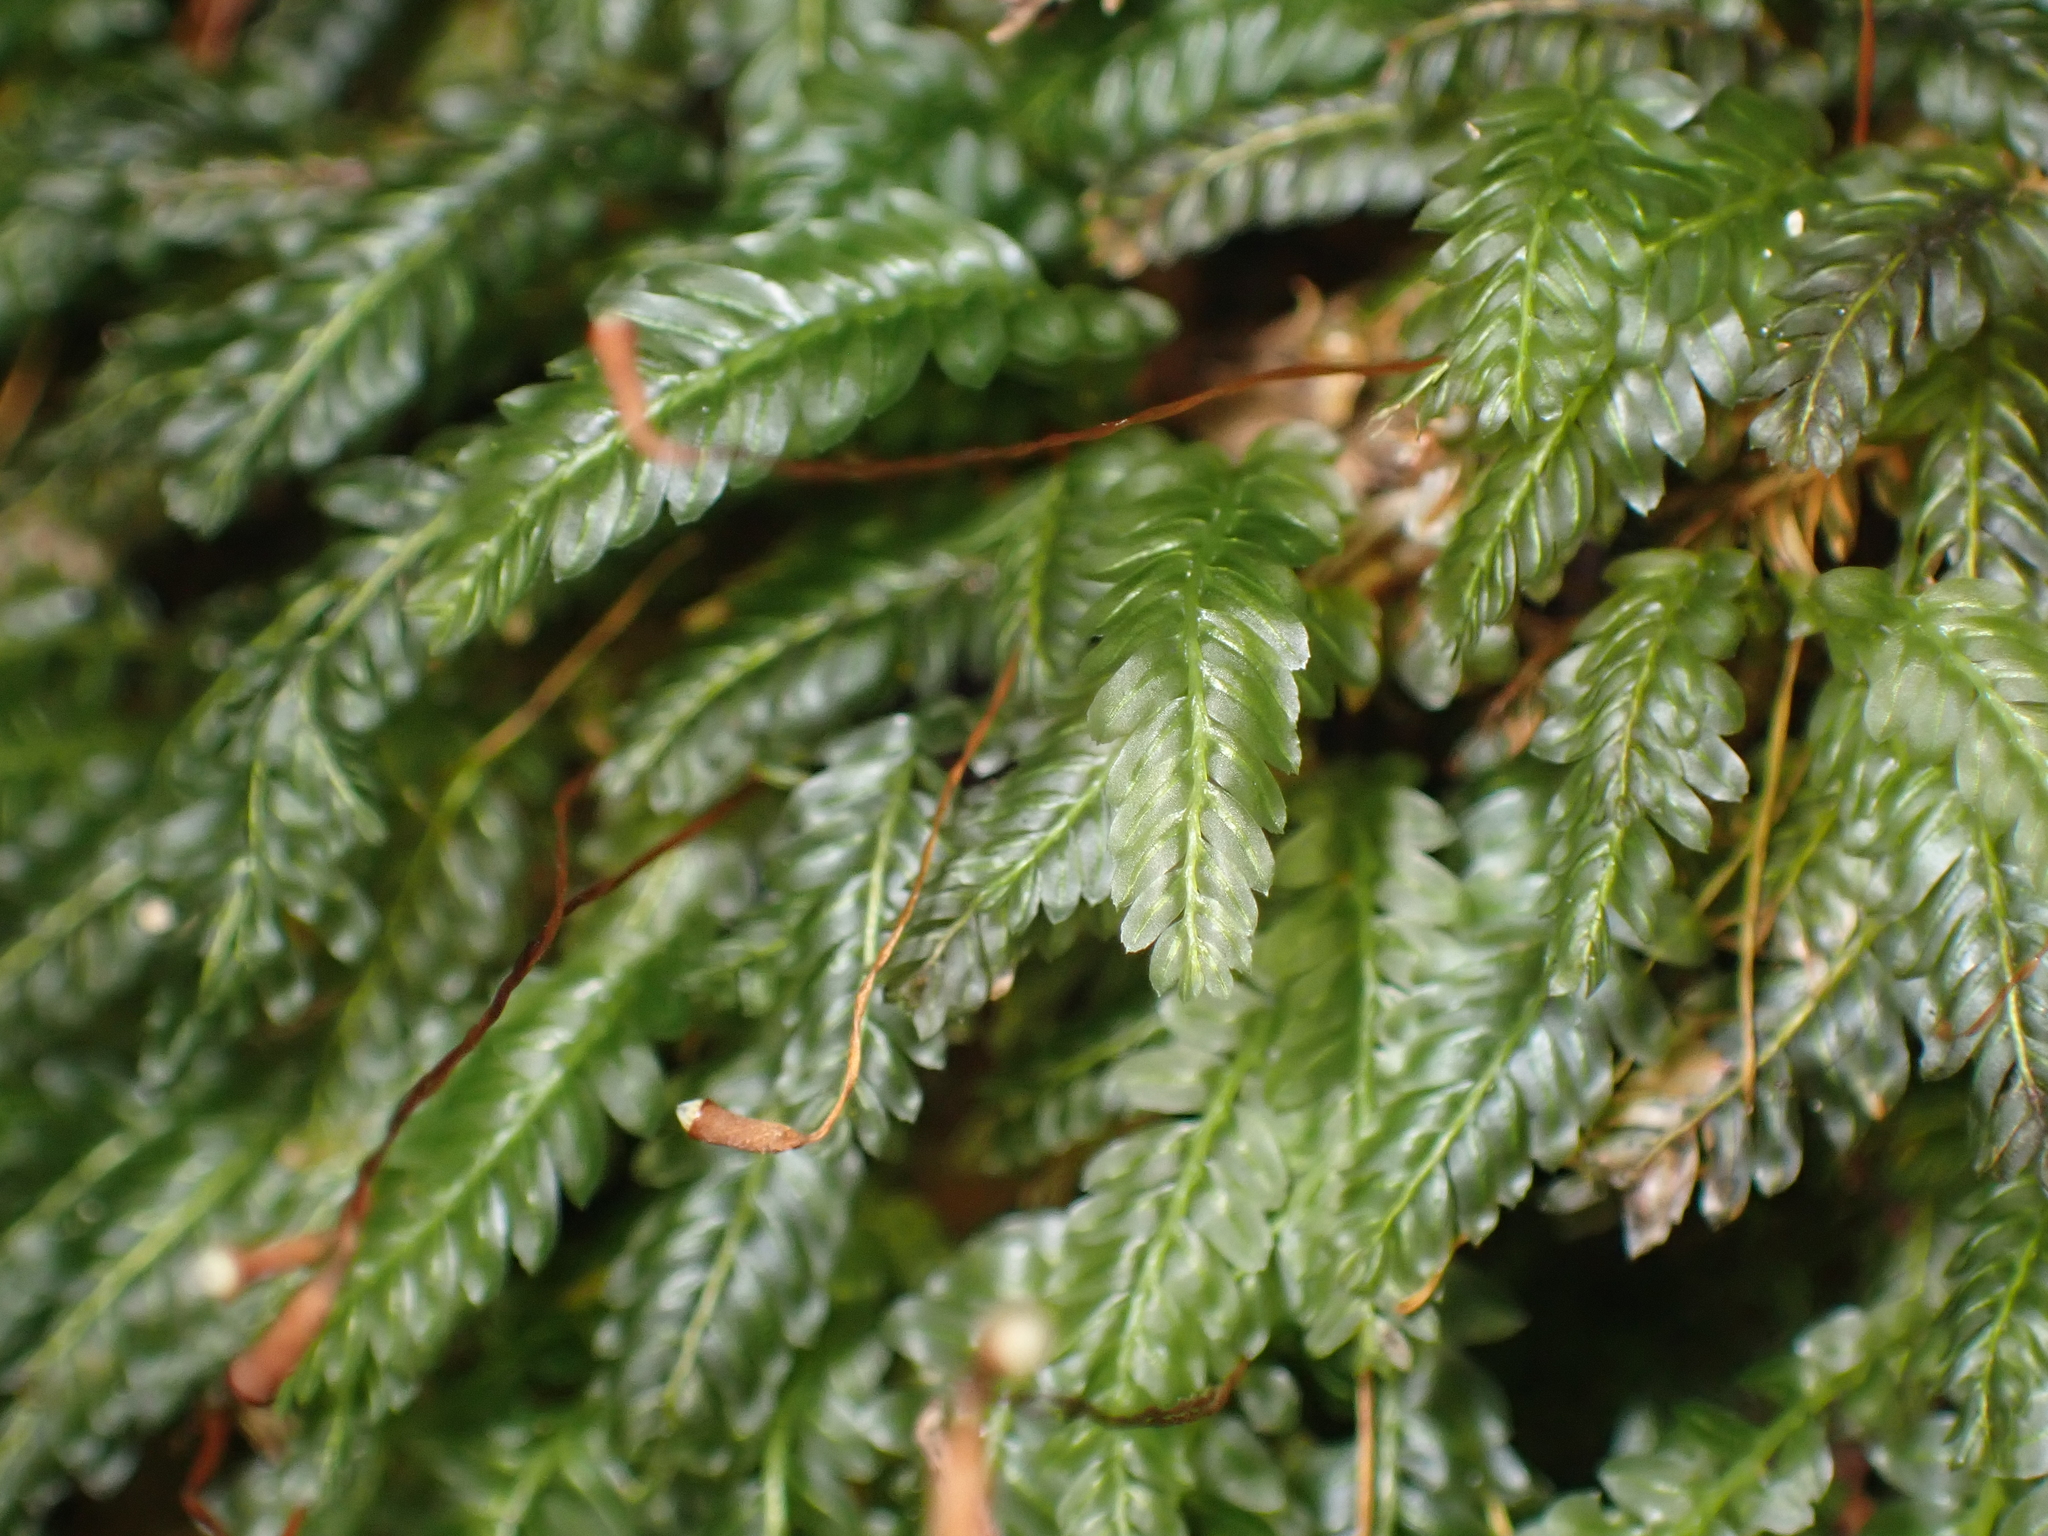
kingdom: Plantae
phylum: Bryophyta
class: Bryopsida
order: Rhizogoniales
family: Rhizogoniaceae
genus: Rhizogonium
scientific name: Rhizogonium distichum
